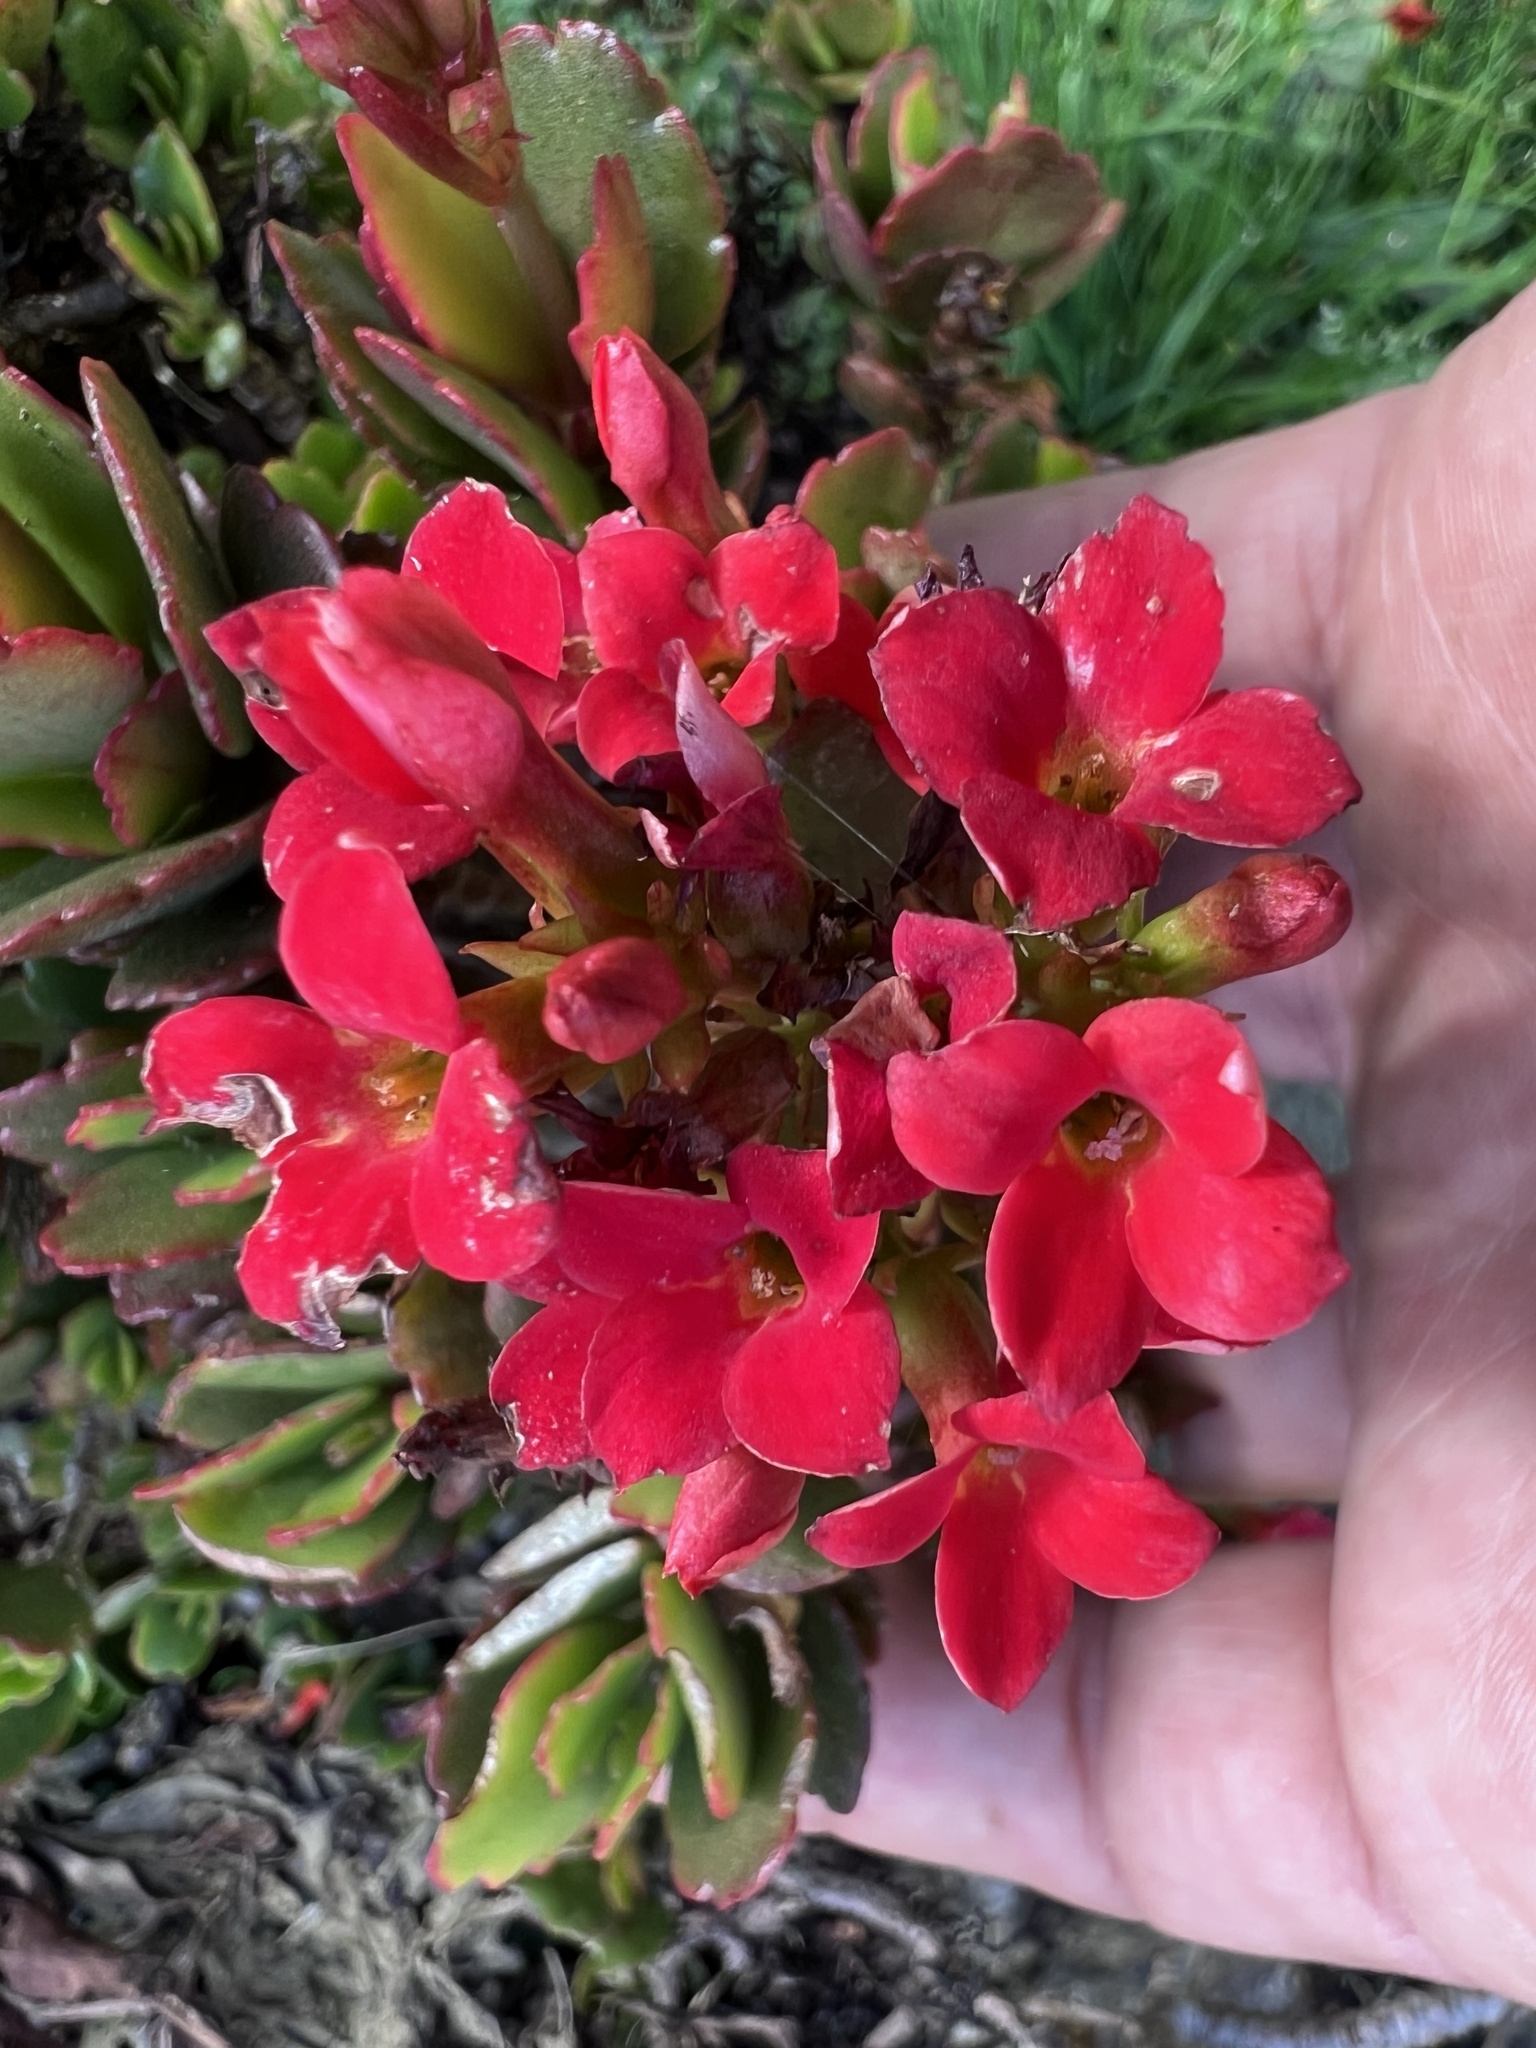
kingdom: Plantae
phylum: Tracheophyta
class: Magnoliopsida
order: Saxifragales
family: Crassulaceae
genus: Kalanchoe
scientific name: Kalanchoe blossfeldiana
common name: Flaming katy
